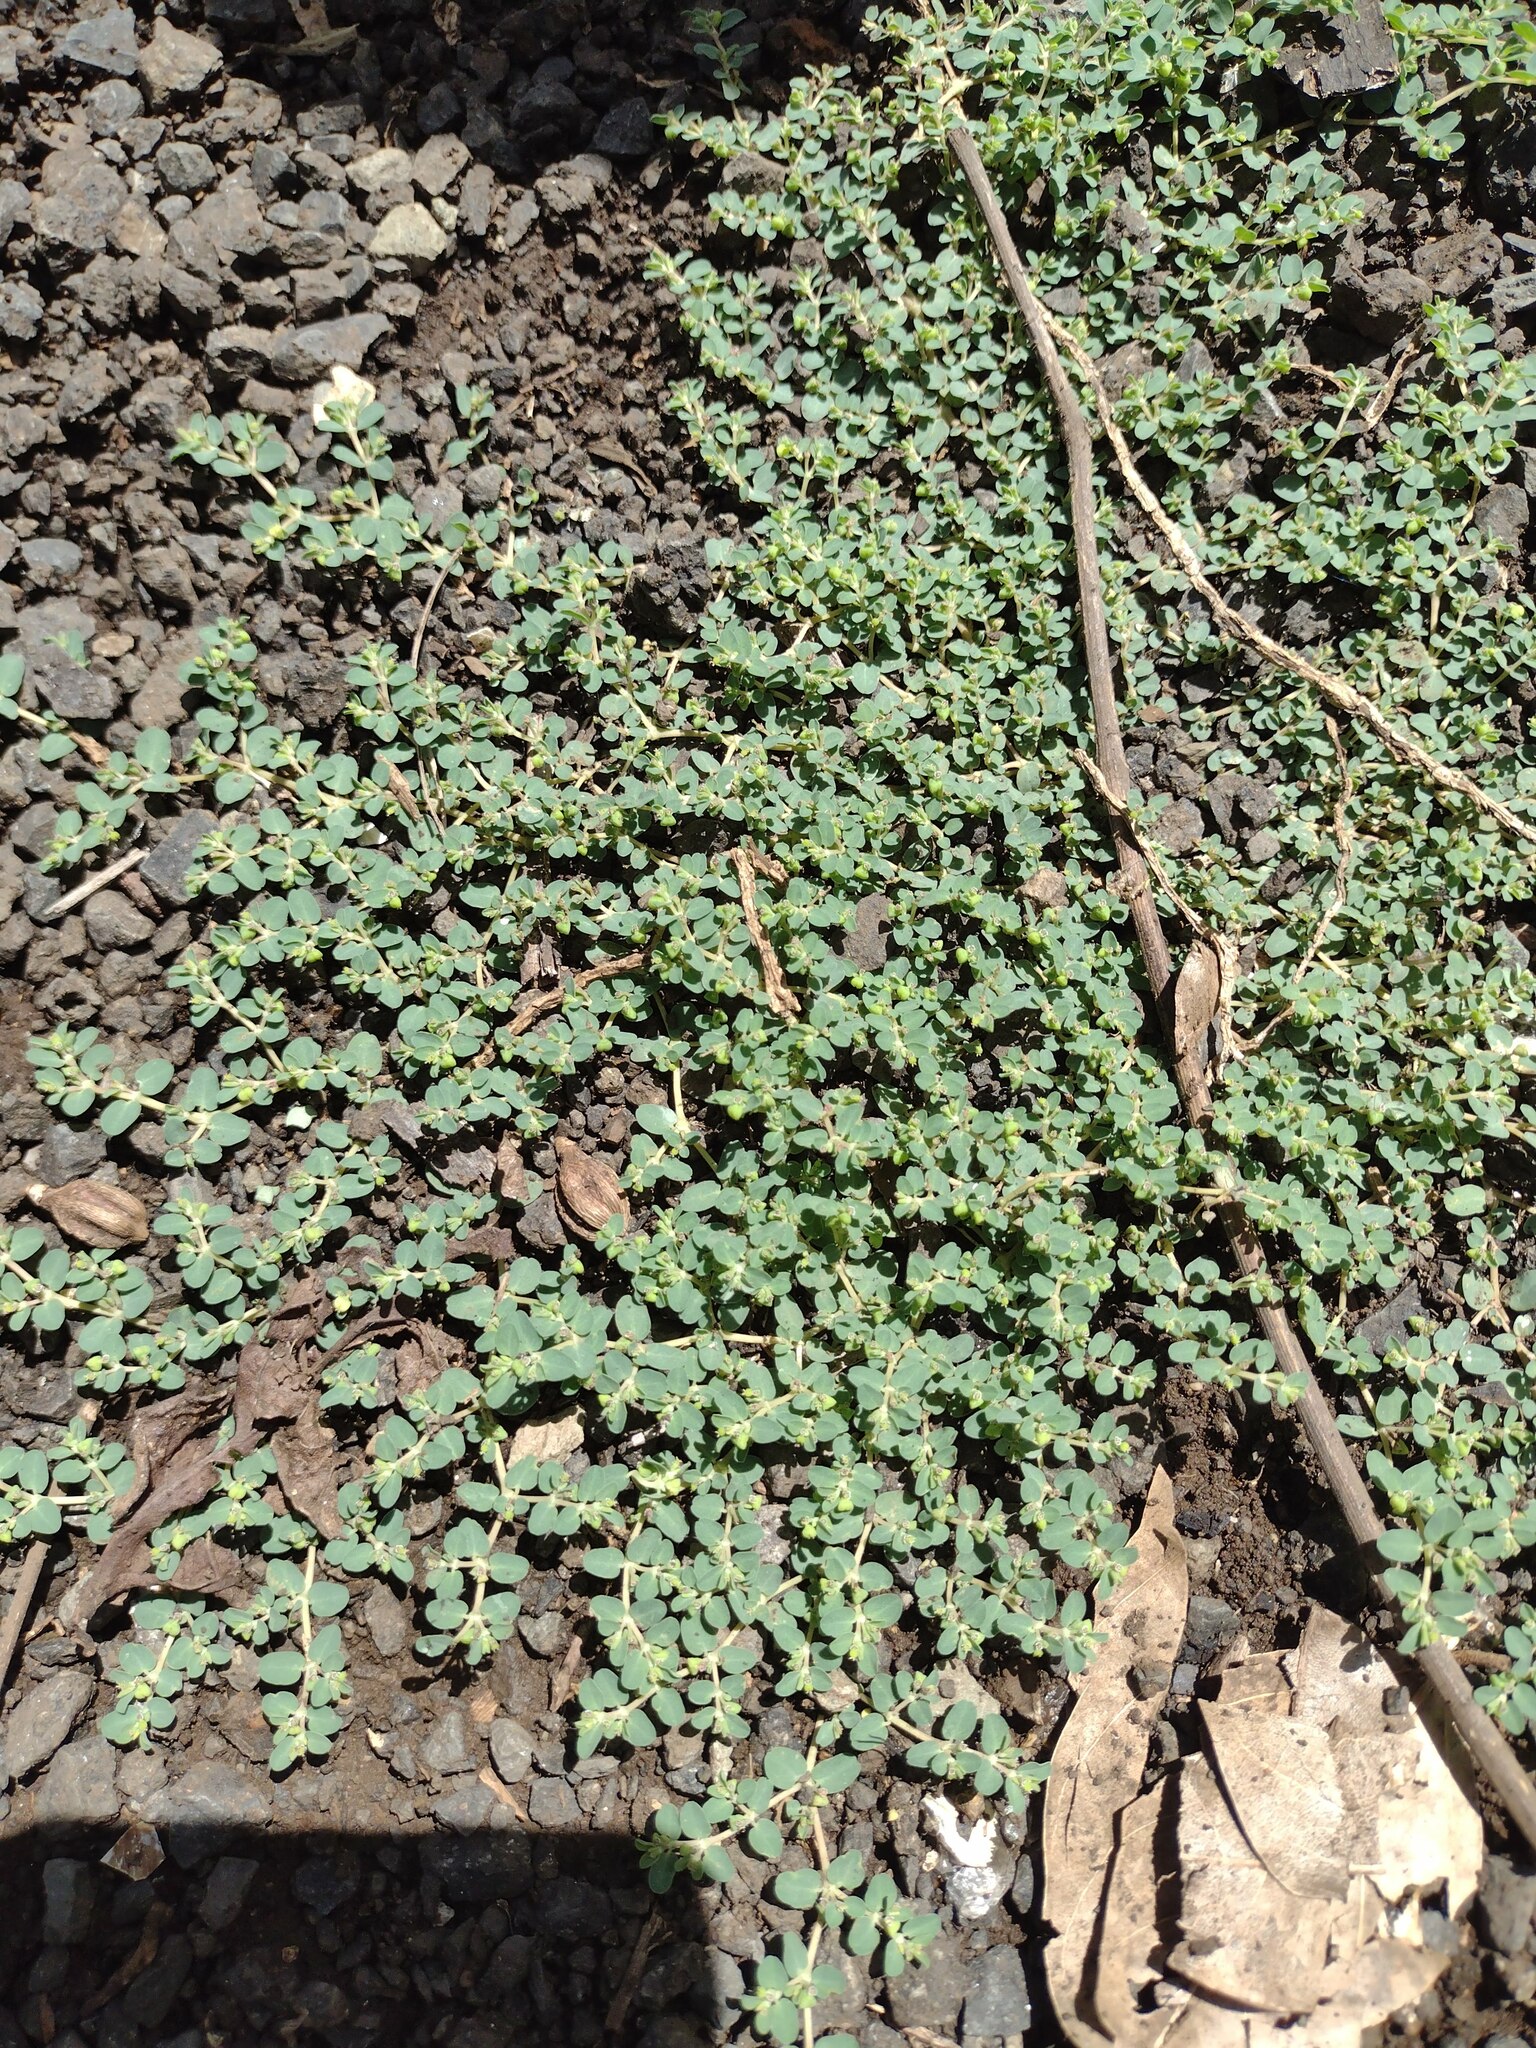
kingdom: Plantae
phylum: Tracheophyta
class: Magnoliopsida
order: Malpighiales
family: Euphorbiaceae
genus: Euphorbia
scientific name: Euphorbia serpens
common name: Matted sandmat
